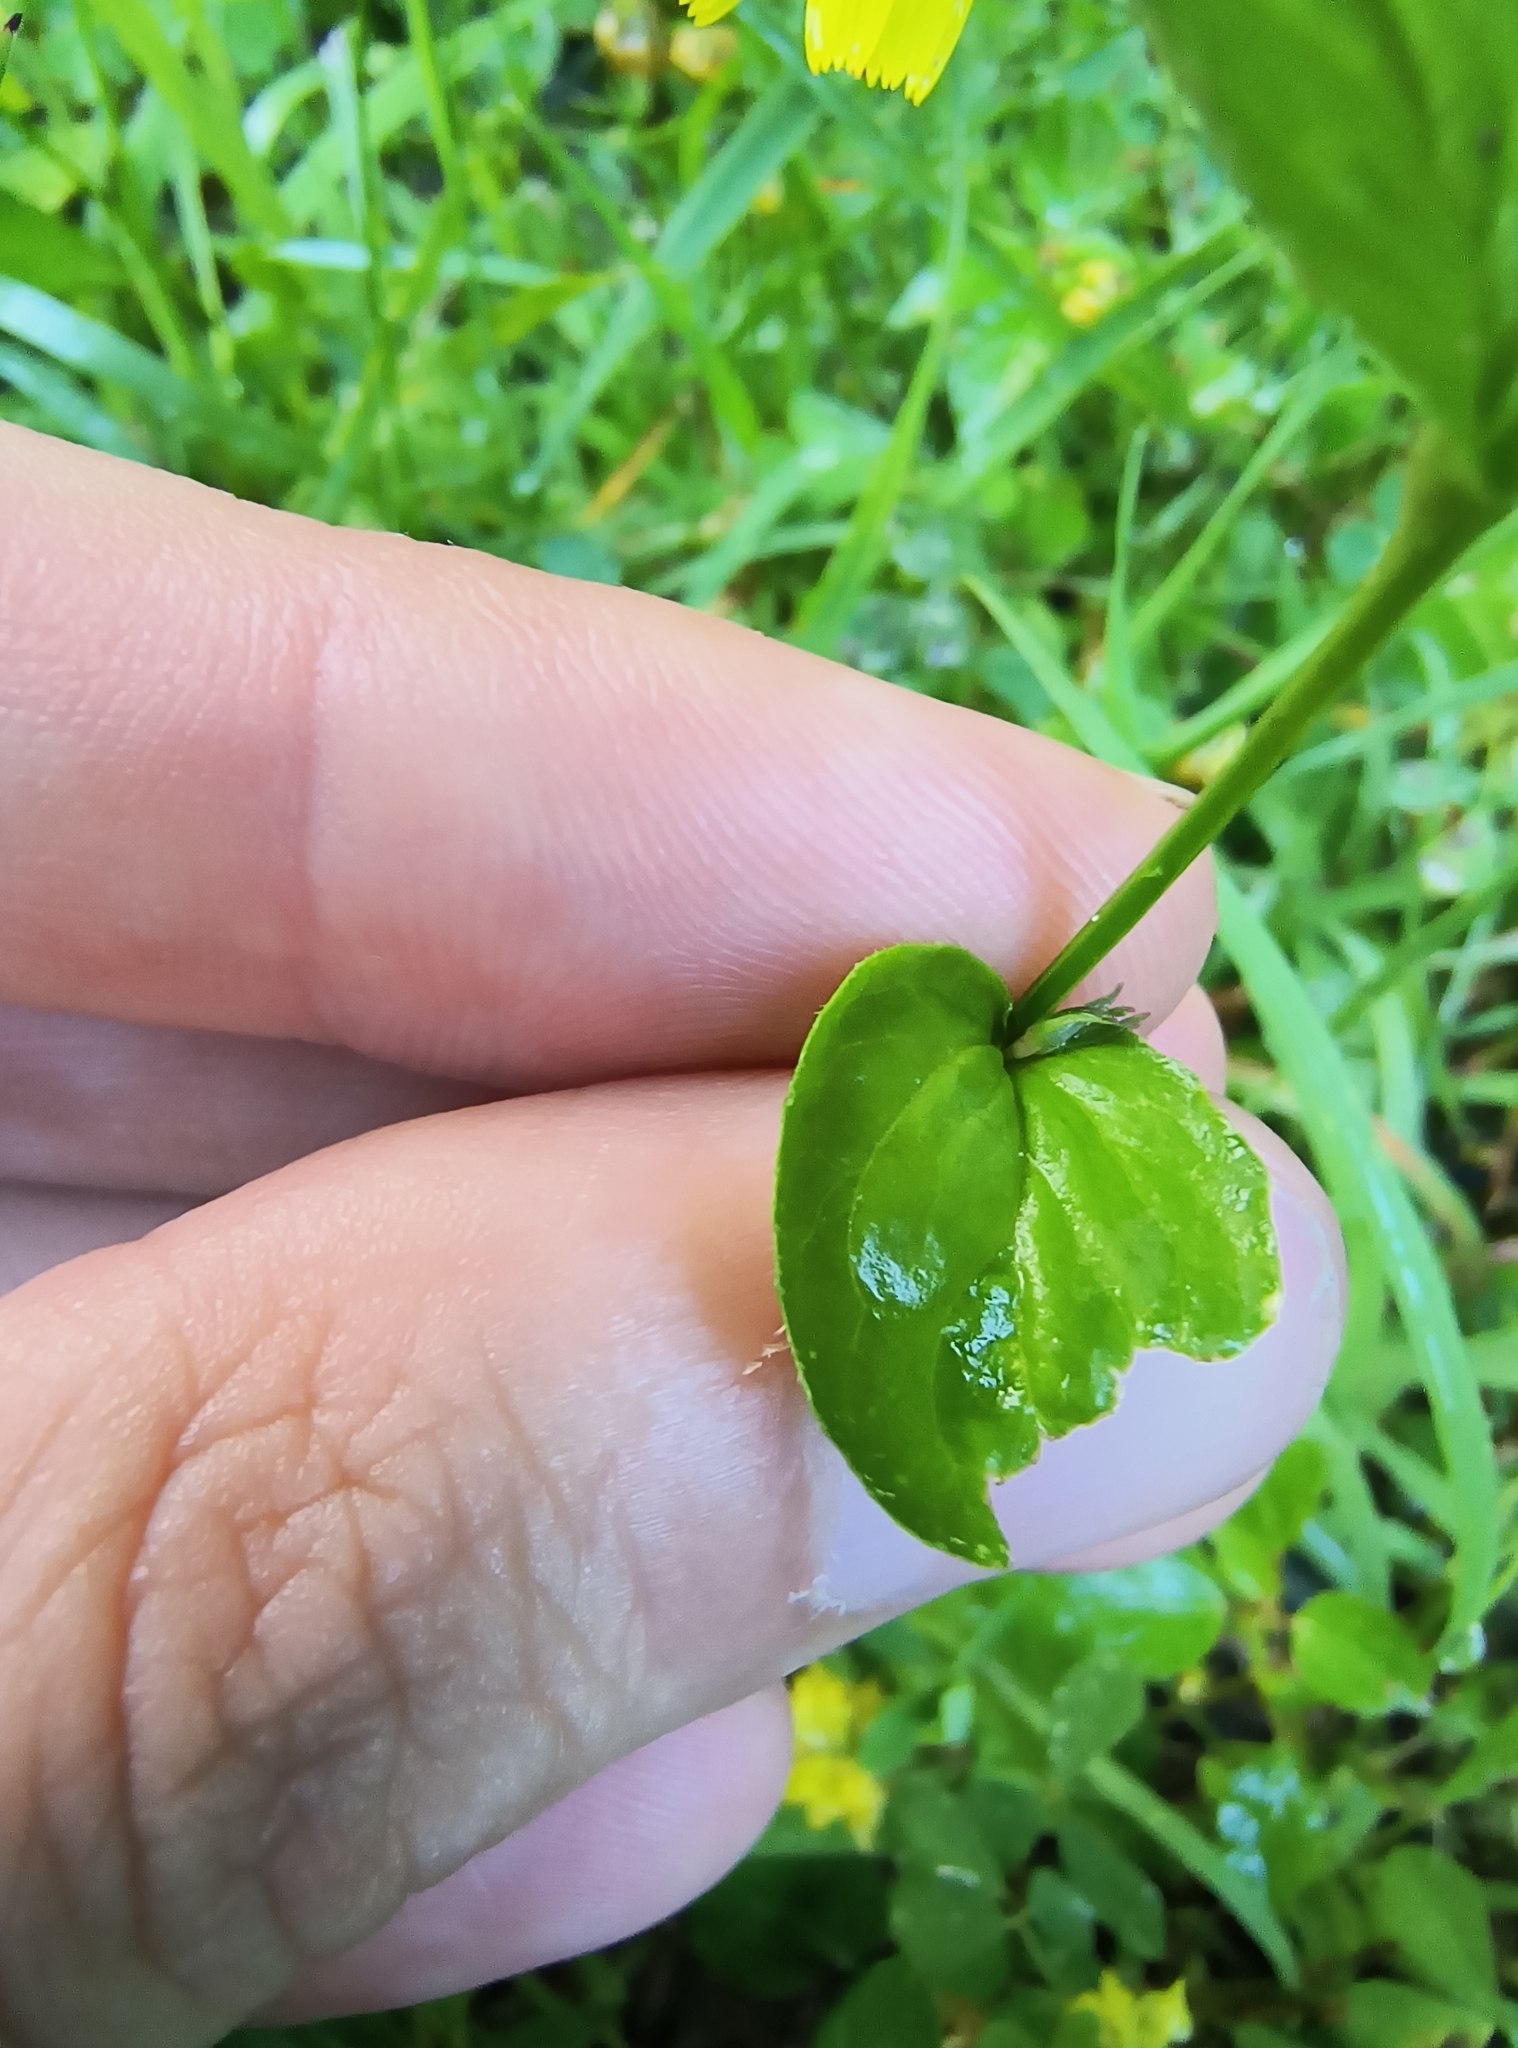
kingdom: Plantae
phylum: Tracheophyta
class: Magnoliopsida
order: Asterales
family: Campanulaceae
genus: Lobelia
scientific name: Lobelia inflata
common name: Indian tobacco
